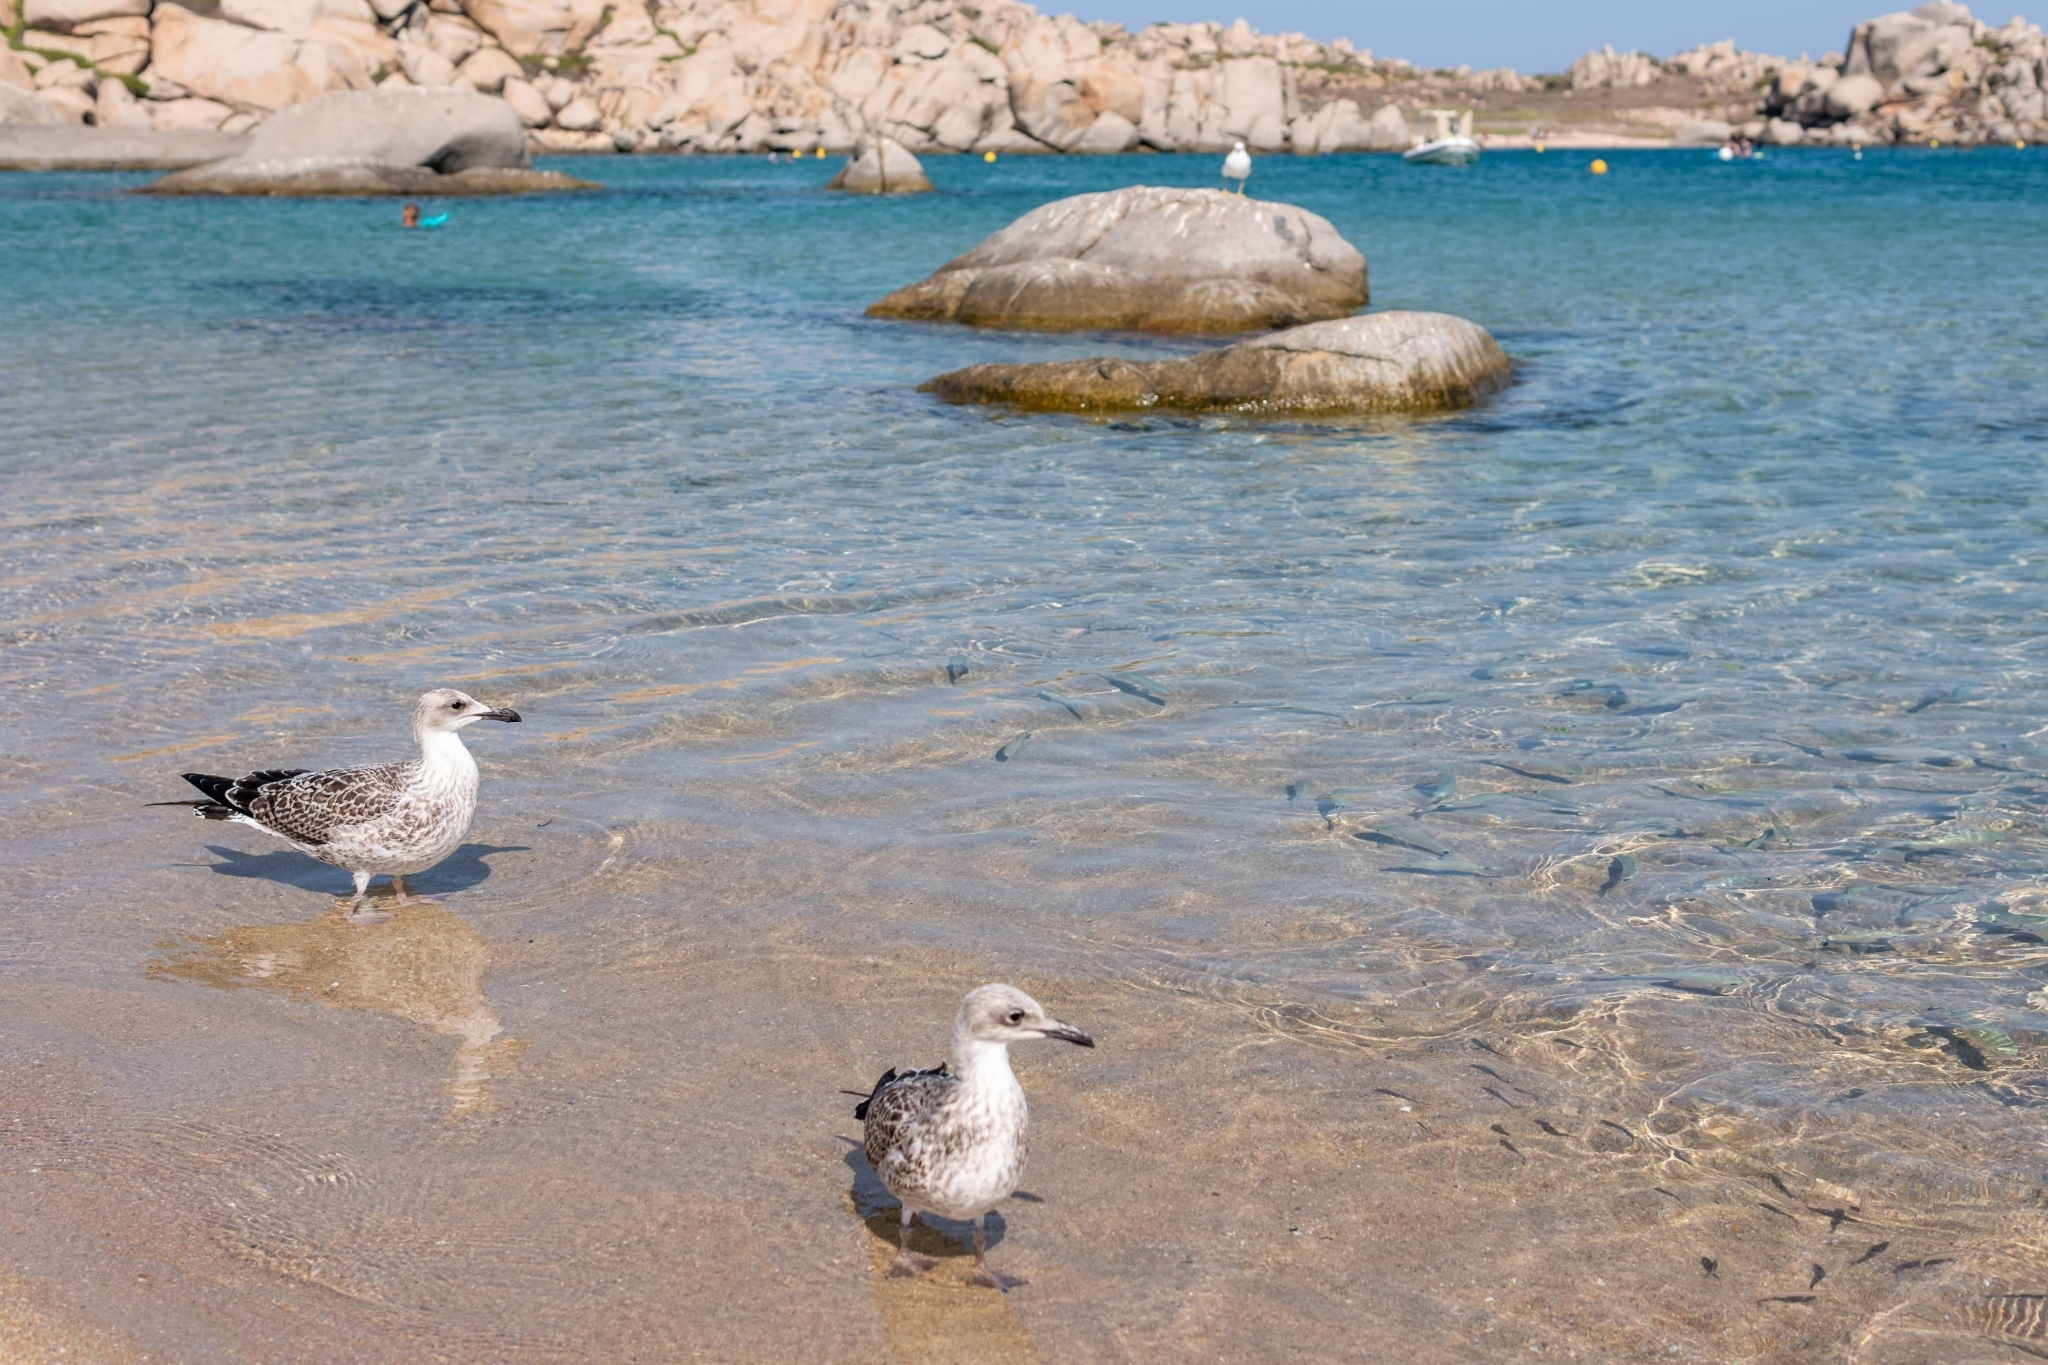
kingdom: Animalia
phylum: Chordata
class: Aves
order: Charadriiformes
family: Laridae
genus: Larus
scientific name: Larus michahellis
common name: Yellow-legged gull
